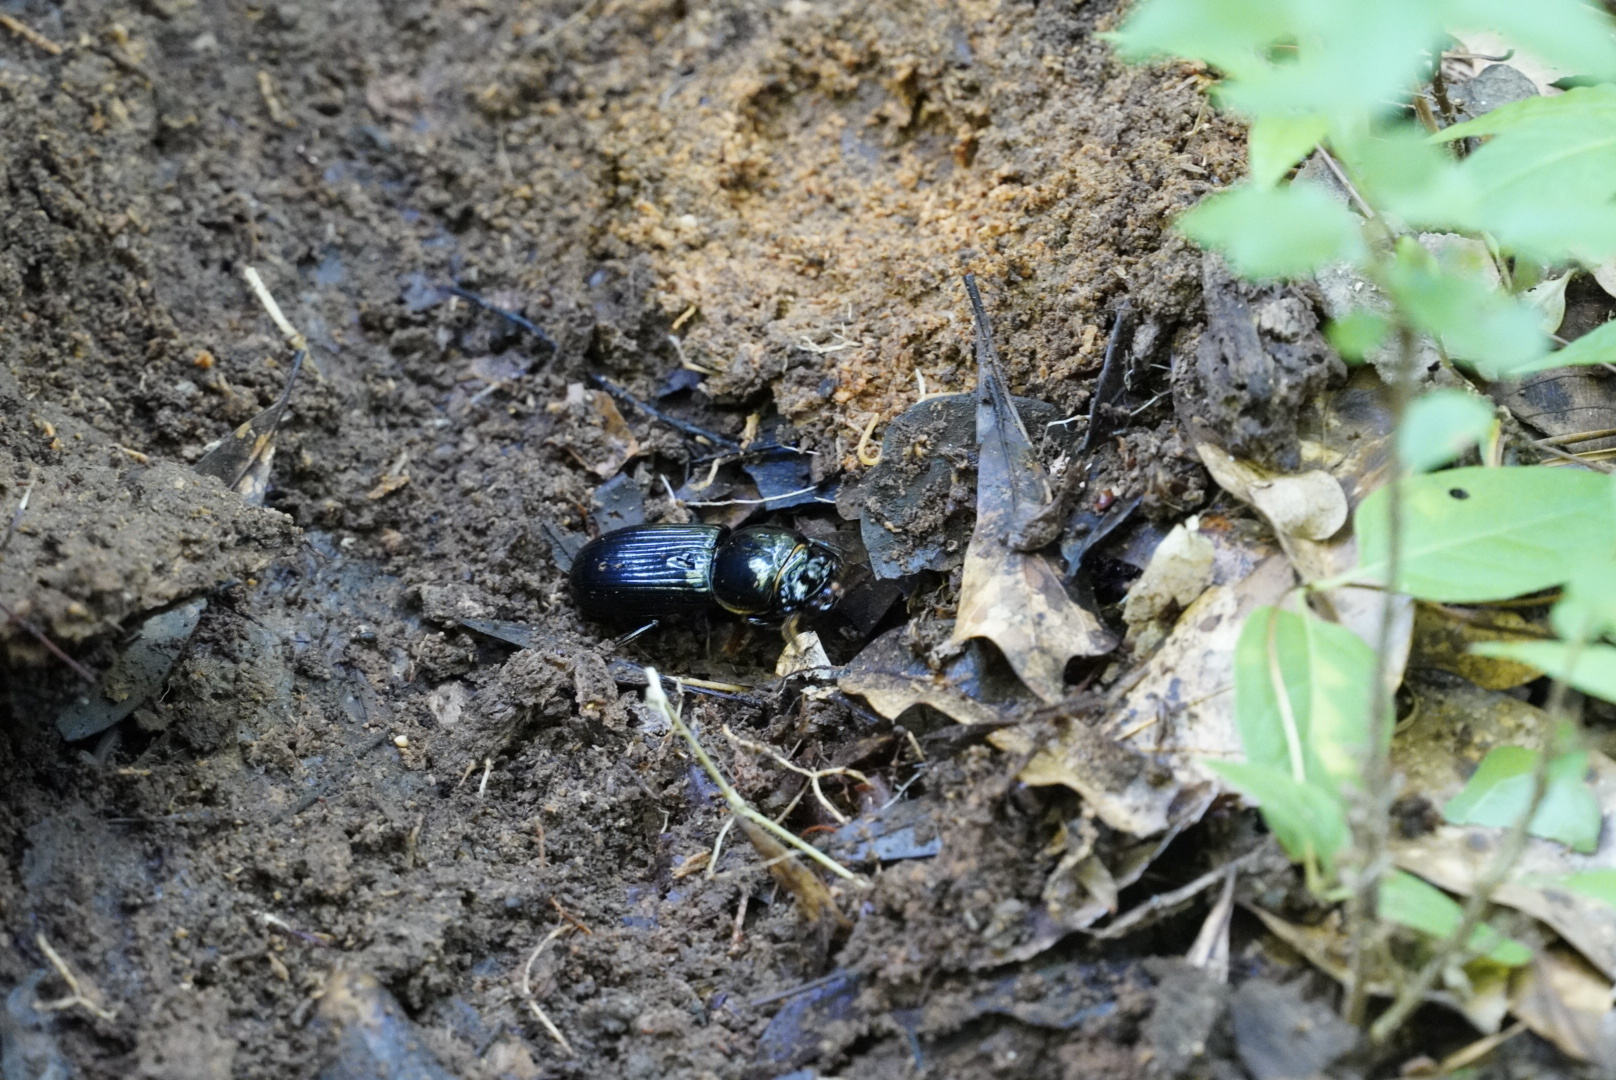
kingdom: Animalia
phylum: Arthropoda
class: Insecta
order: Coleoptera
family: Passalidae
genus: Odontotaenius
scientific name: Odontotaenius disjunctus
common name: Patent leather beetle
